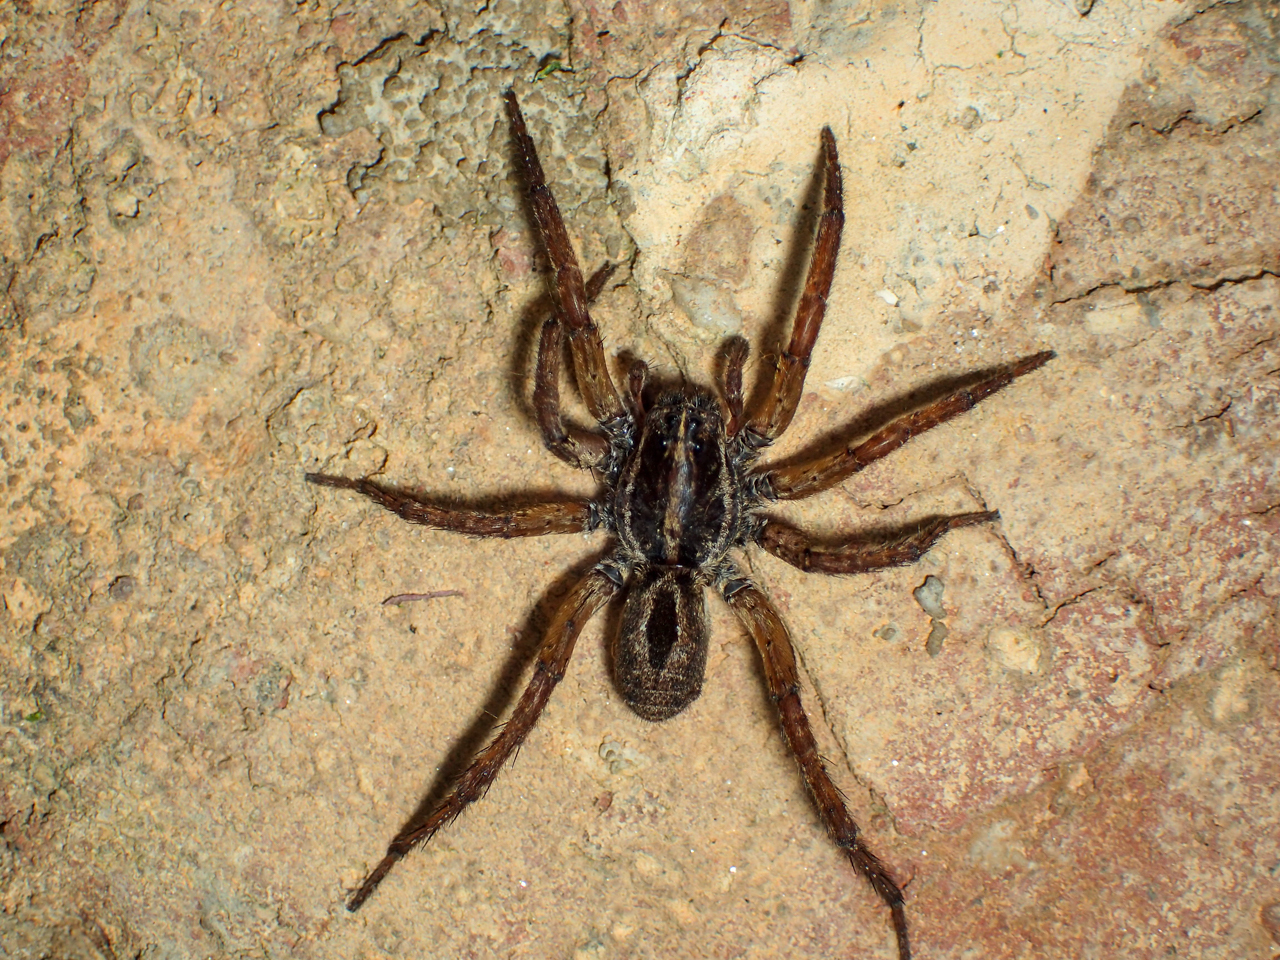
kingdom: Animalia
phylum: Arthropoda
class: Arachnida
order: Araneae
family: Lycosidae
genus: Tigrosa
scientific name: Tigrosa annexa
